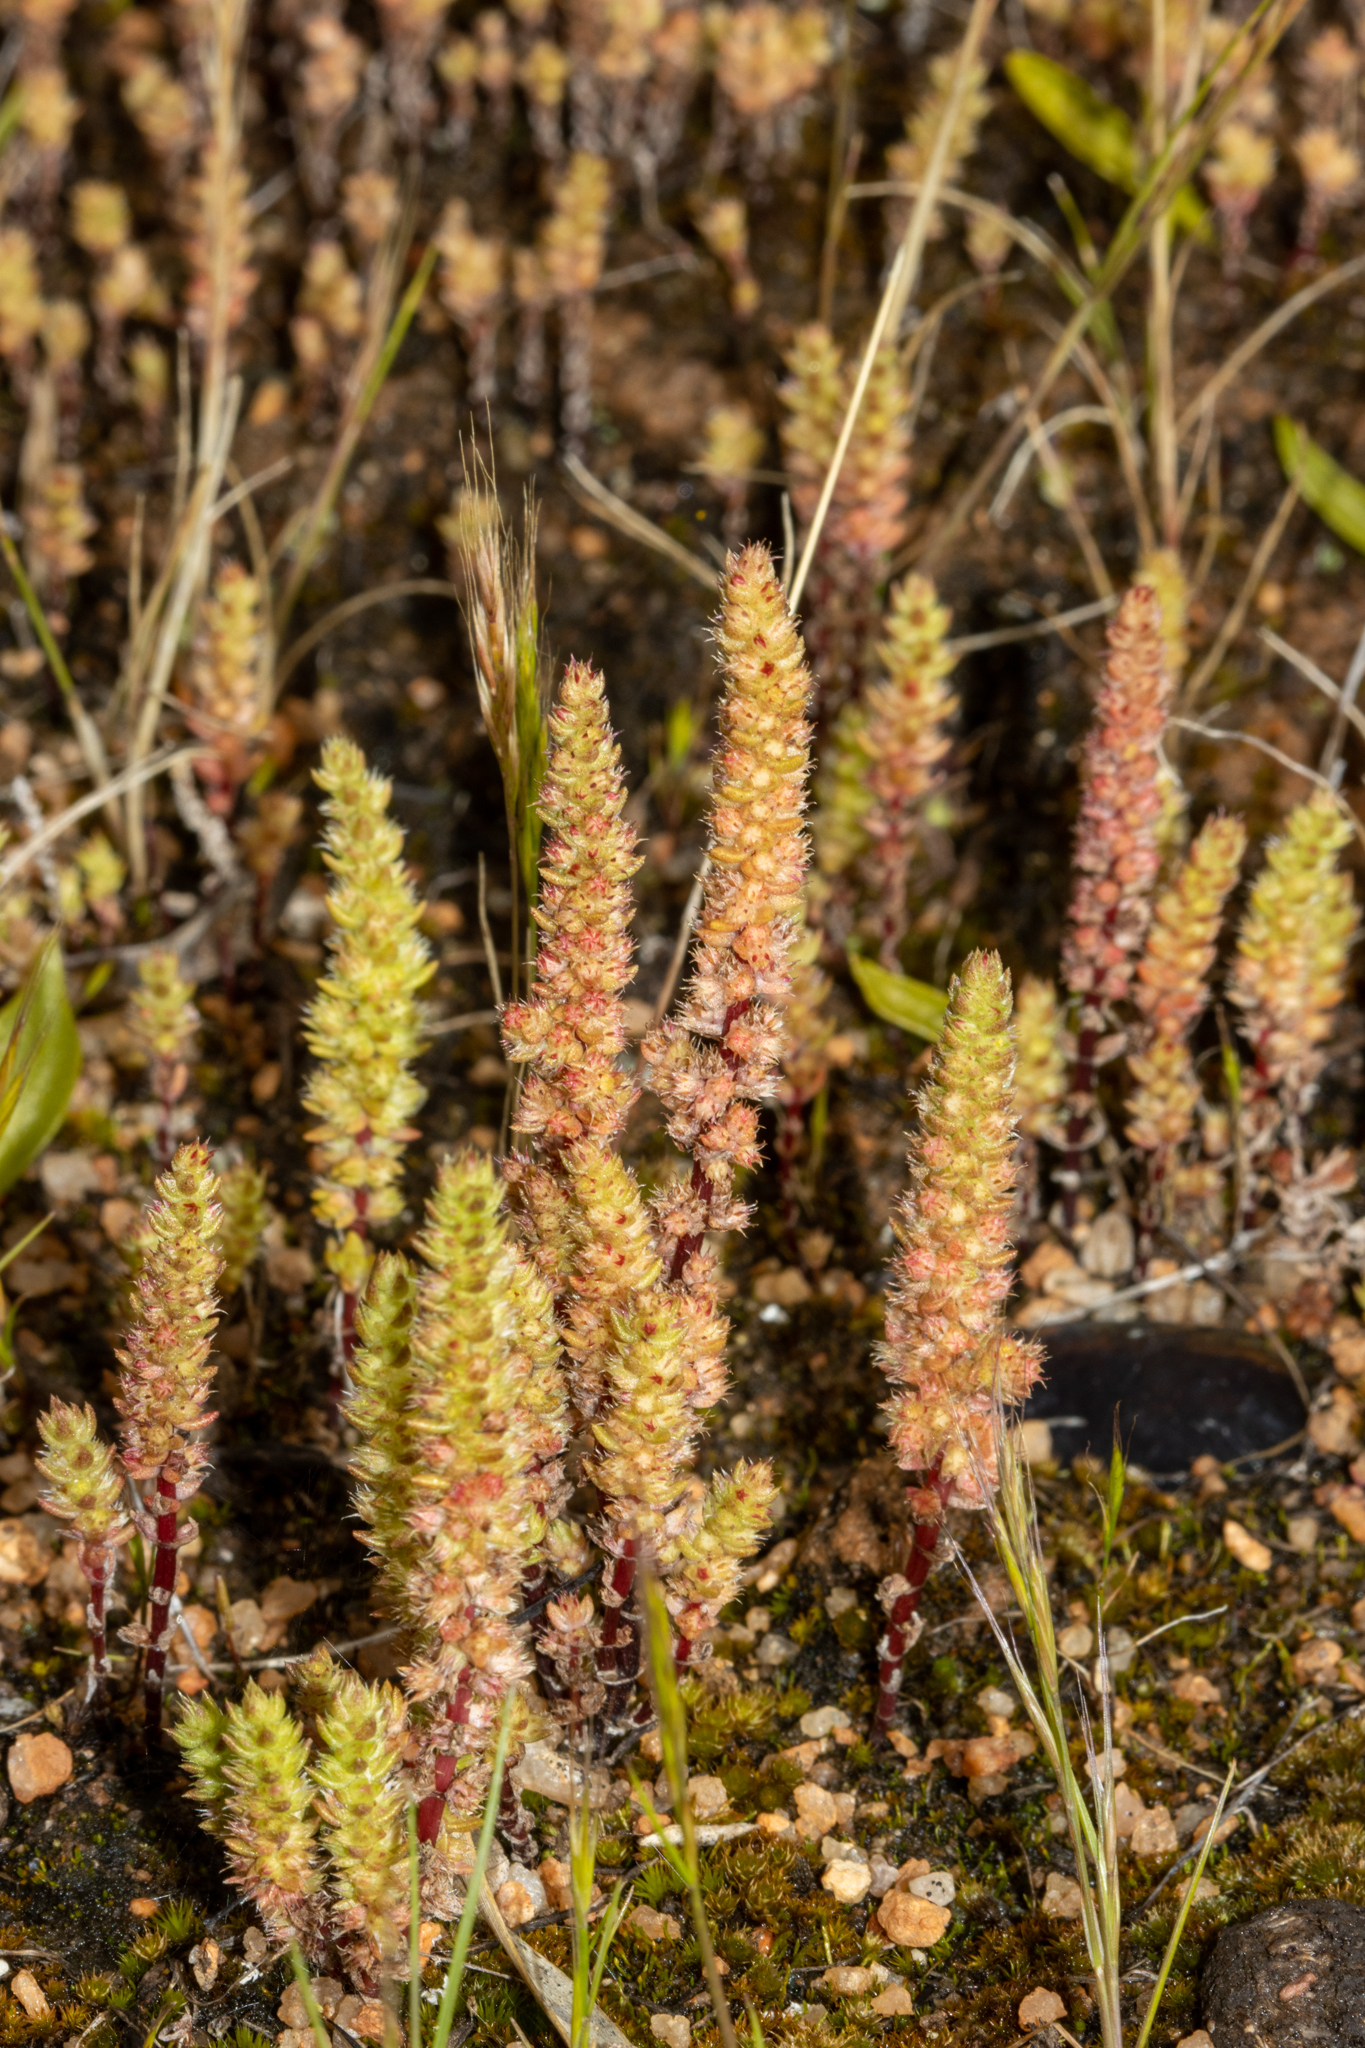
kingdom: Plantae
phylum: Tracheophyta
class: Magnoliopsida
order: Saxifragales
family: Crassulaceae
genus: Crassula
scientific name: Crassula colorata
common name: Dense pigmyweed
